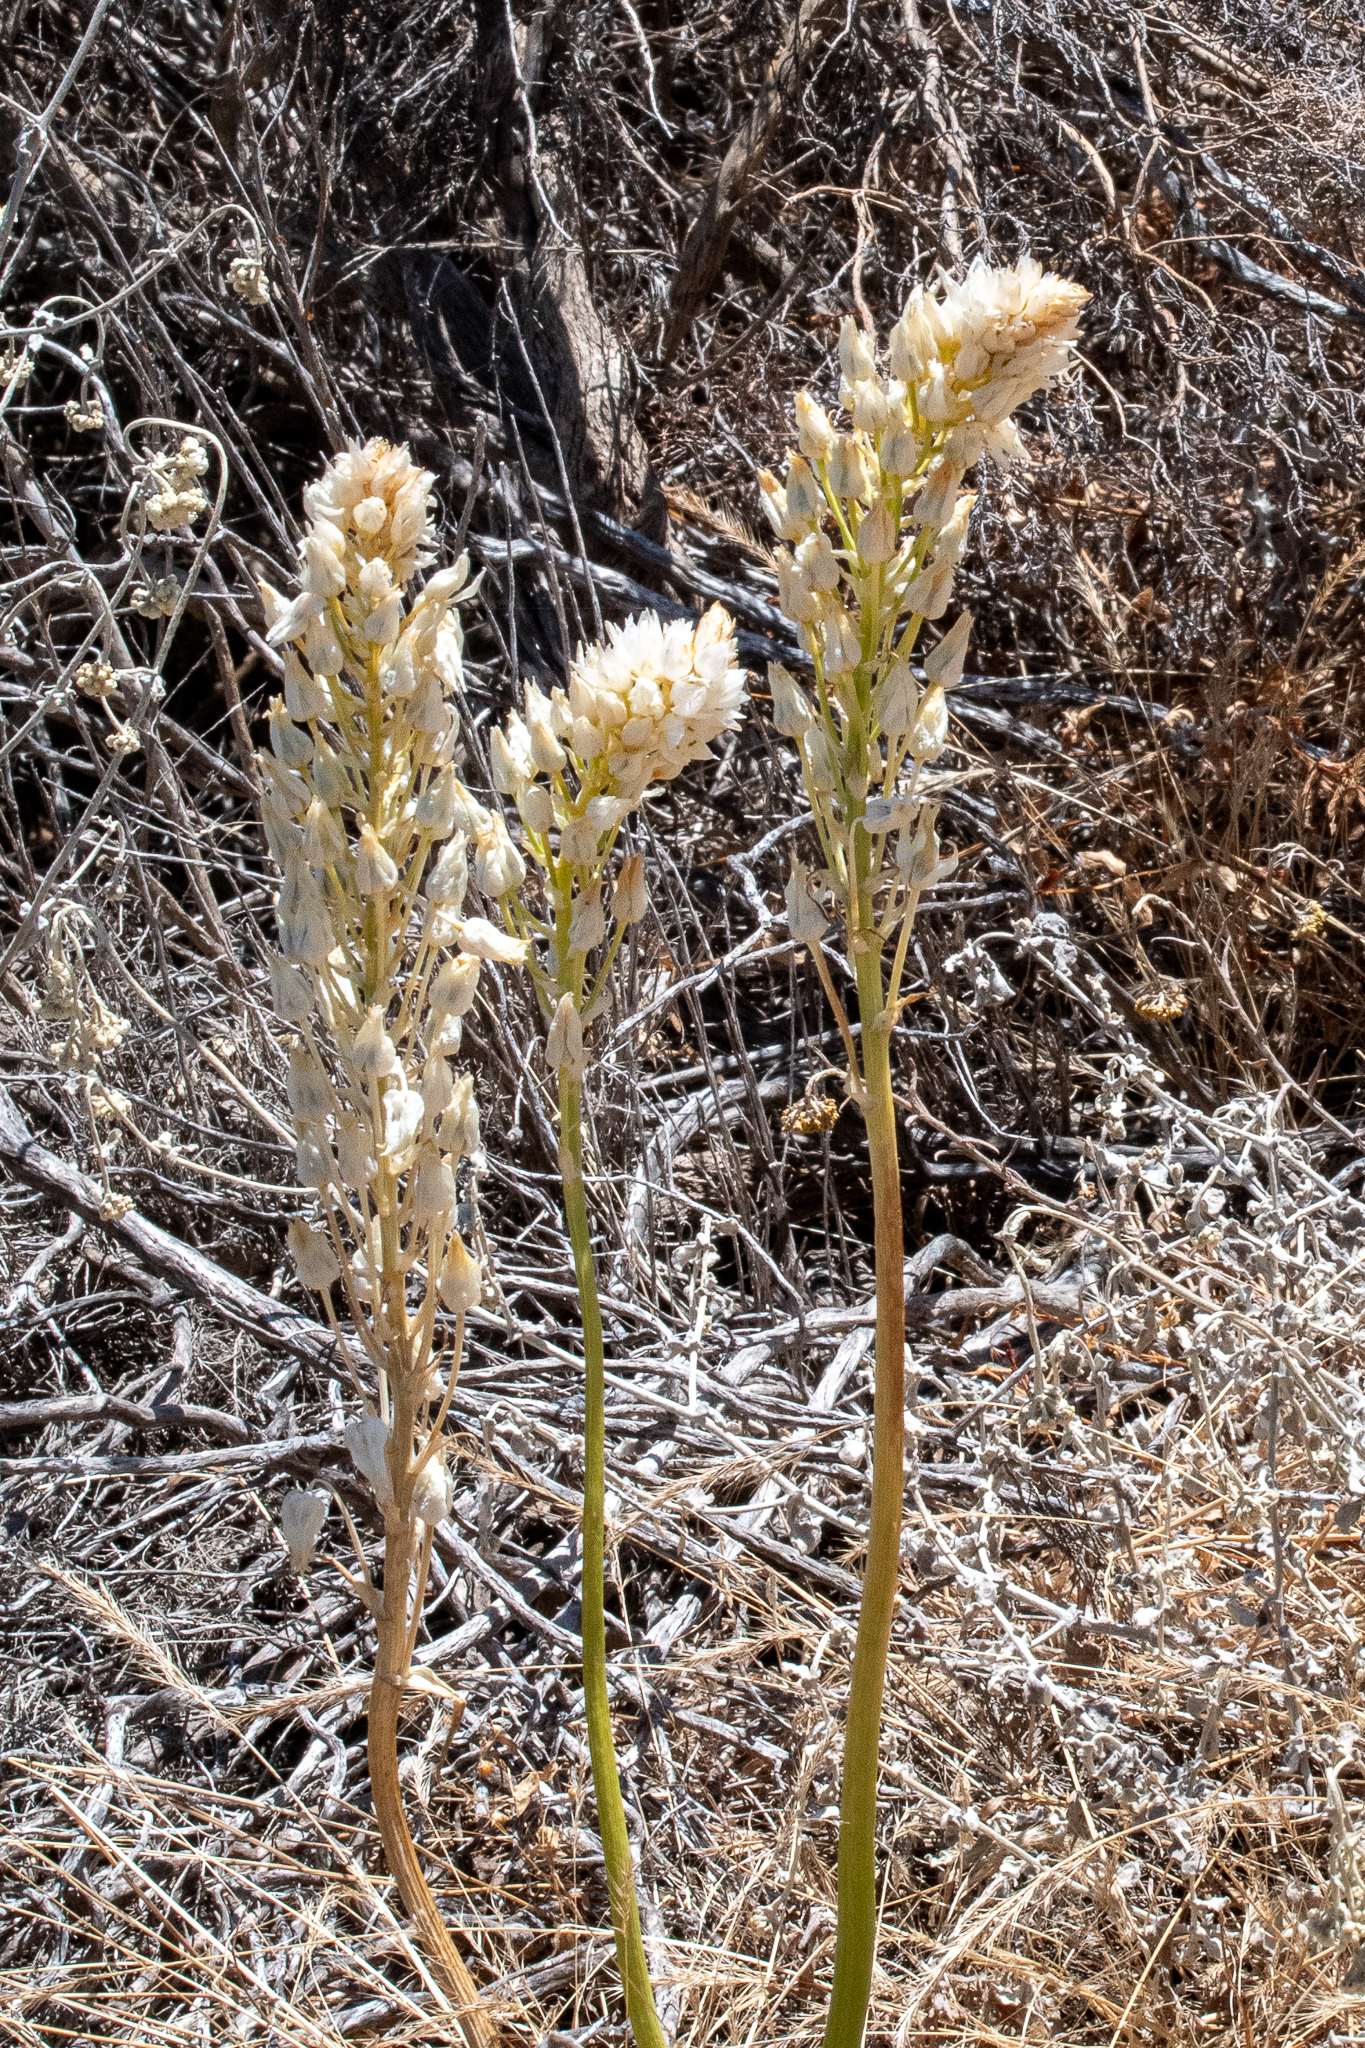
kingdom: Plantae
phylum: Tracheophyta
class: Liliopsida
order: Asparagales
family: Asparagaceae
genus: Ornithogalum
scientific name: Ornithogalum thyrsoides
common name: Chincherinchee
